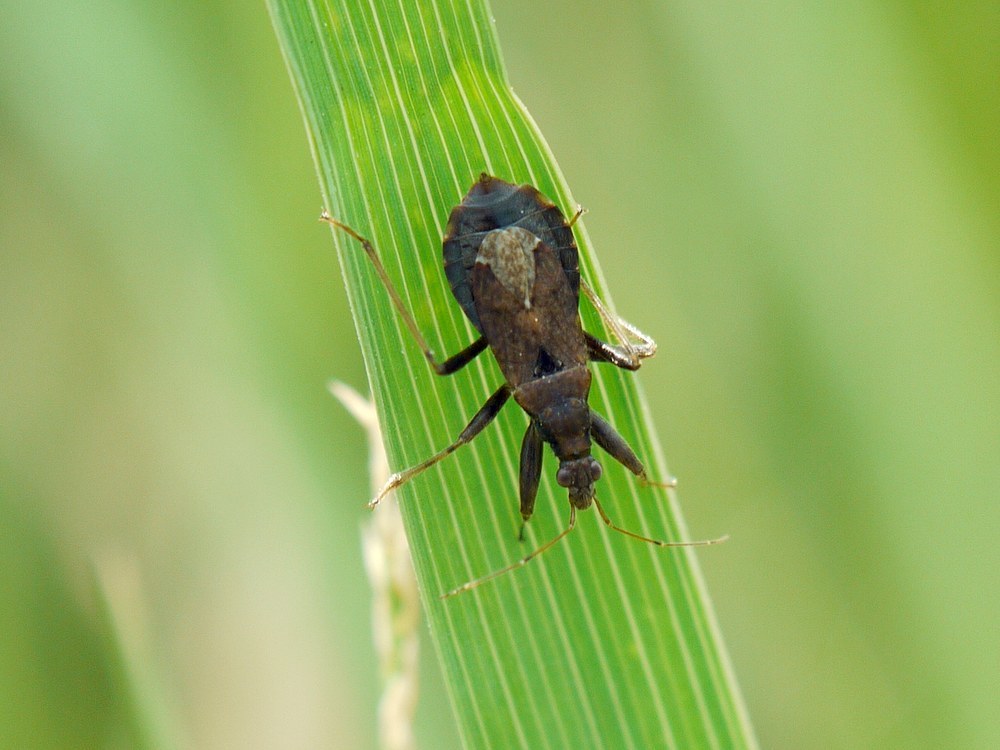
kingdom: Animalia
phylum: Arthropoda
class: Insecta
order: Hemiptera
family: Nabidae
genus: Himacerus
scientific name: Himacerus mirmicoides
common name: Ant damsel bug
